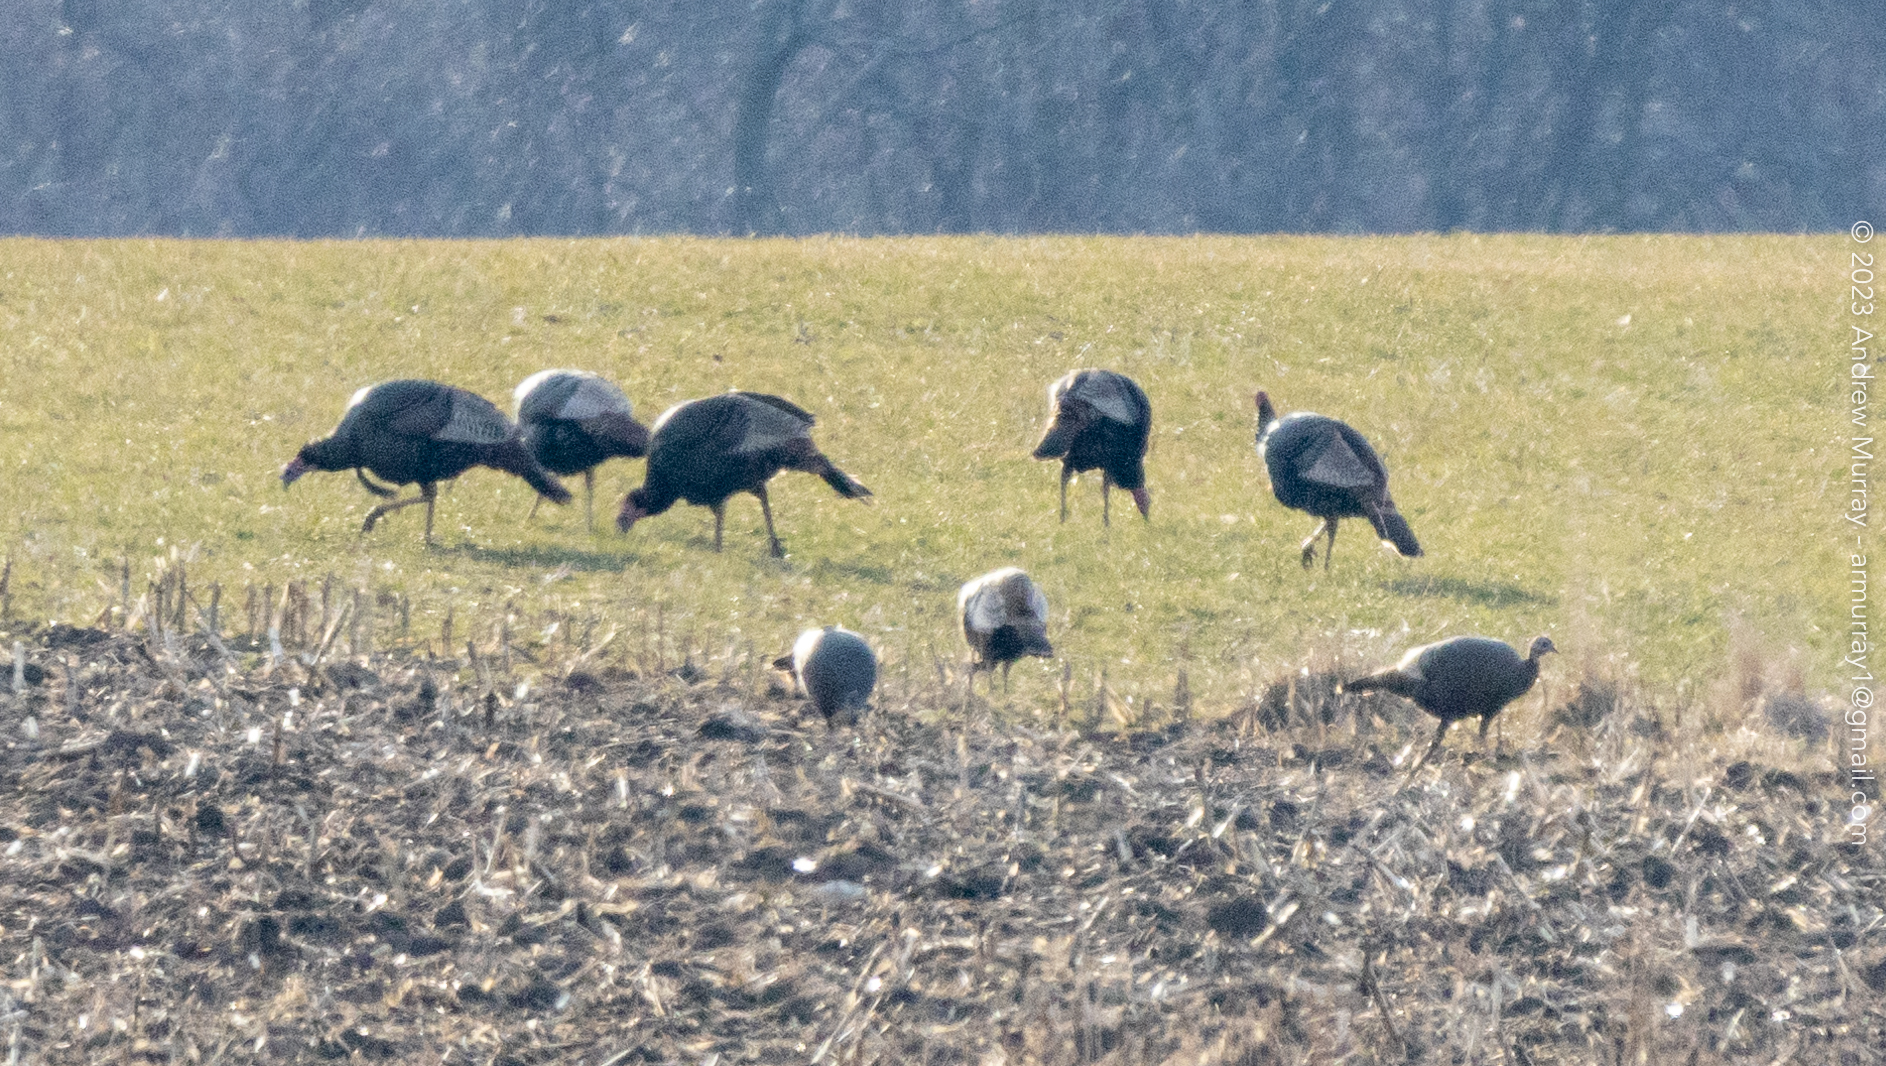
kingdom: Animalia
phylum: Chordata
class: Aves
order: Galliformes
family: Phasianidae
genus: Meleagris
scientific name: Meleagris gallopavo
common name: Wild turkey
